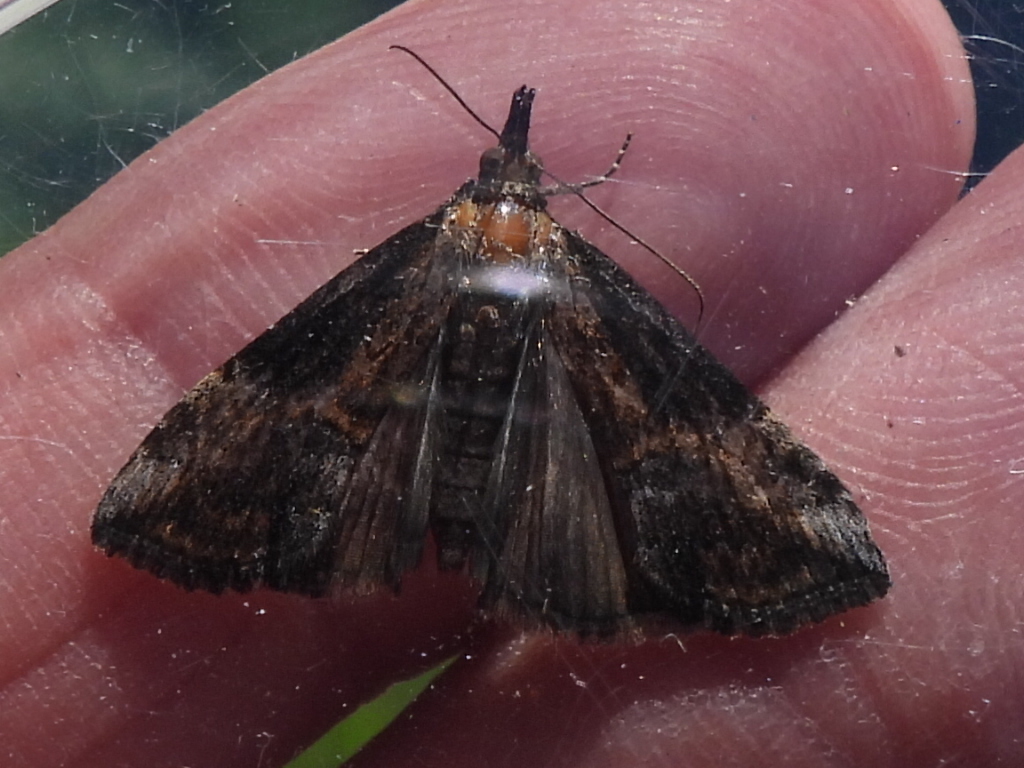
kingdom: Animalia
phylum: Arthropoda
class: Insecta
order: Lepidoptera
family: Erebidae
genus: Hypena
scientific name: Hypena scabra
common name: Green cloverworm
